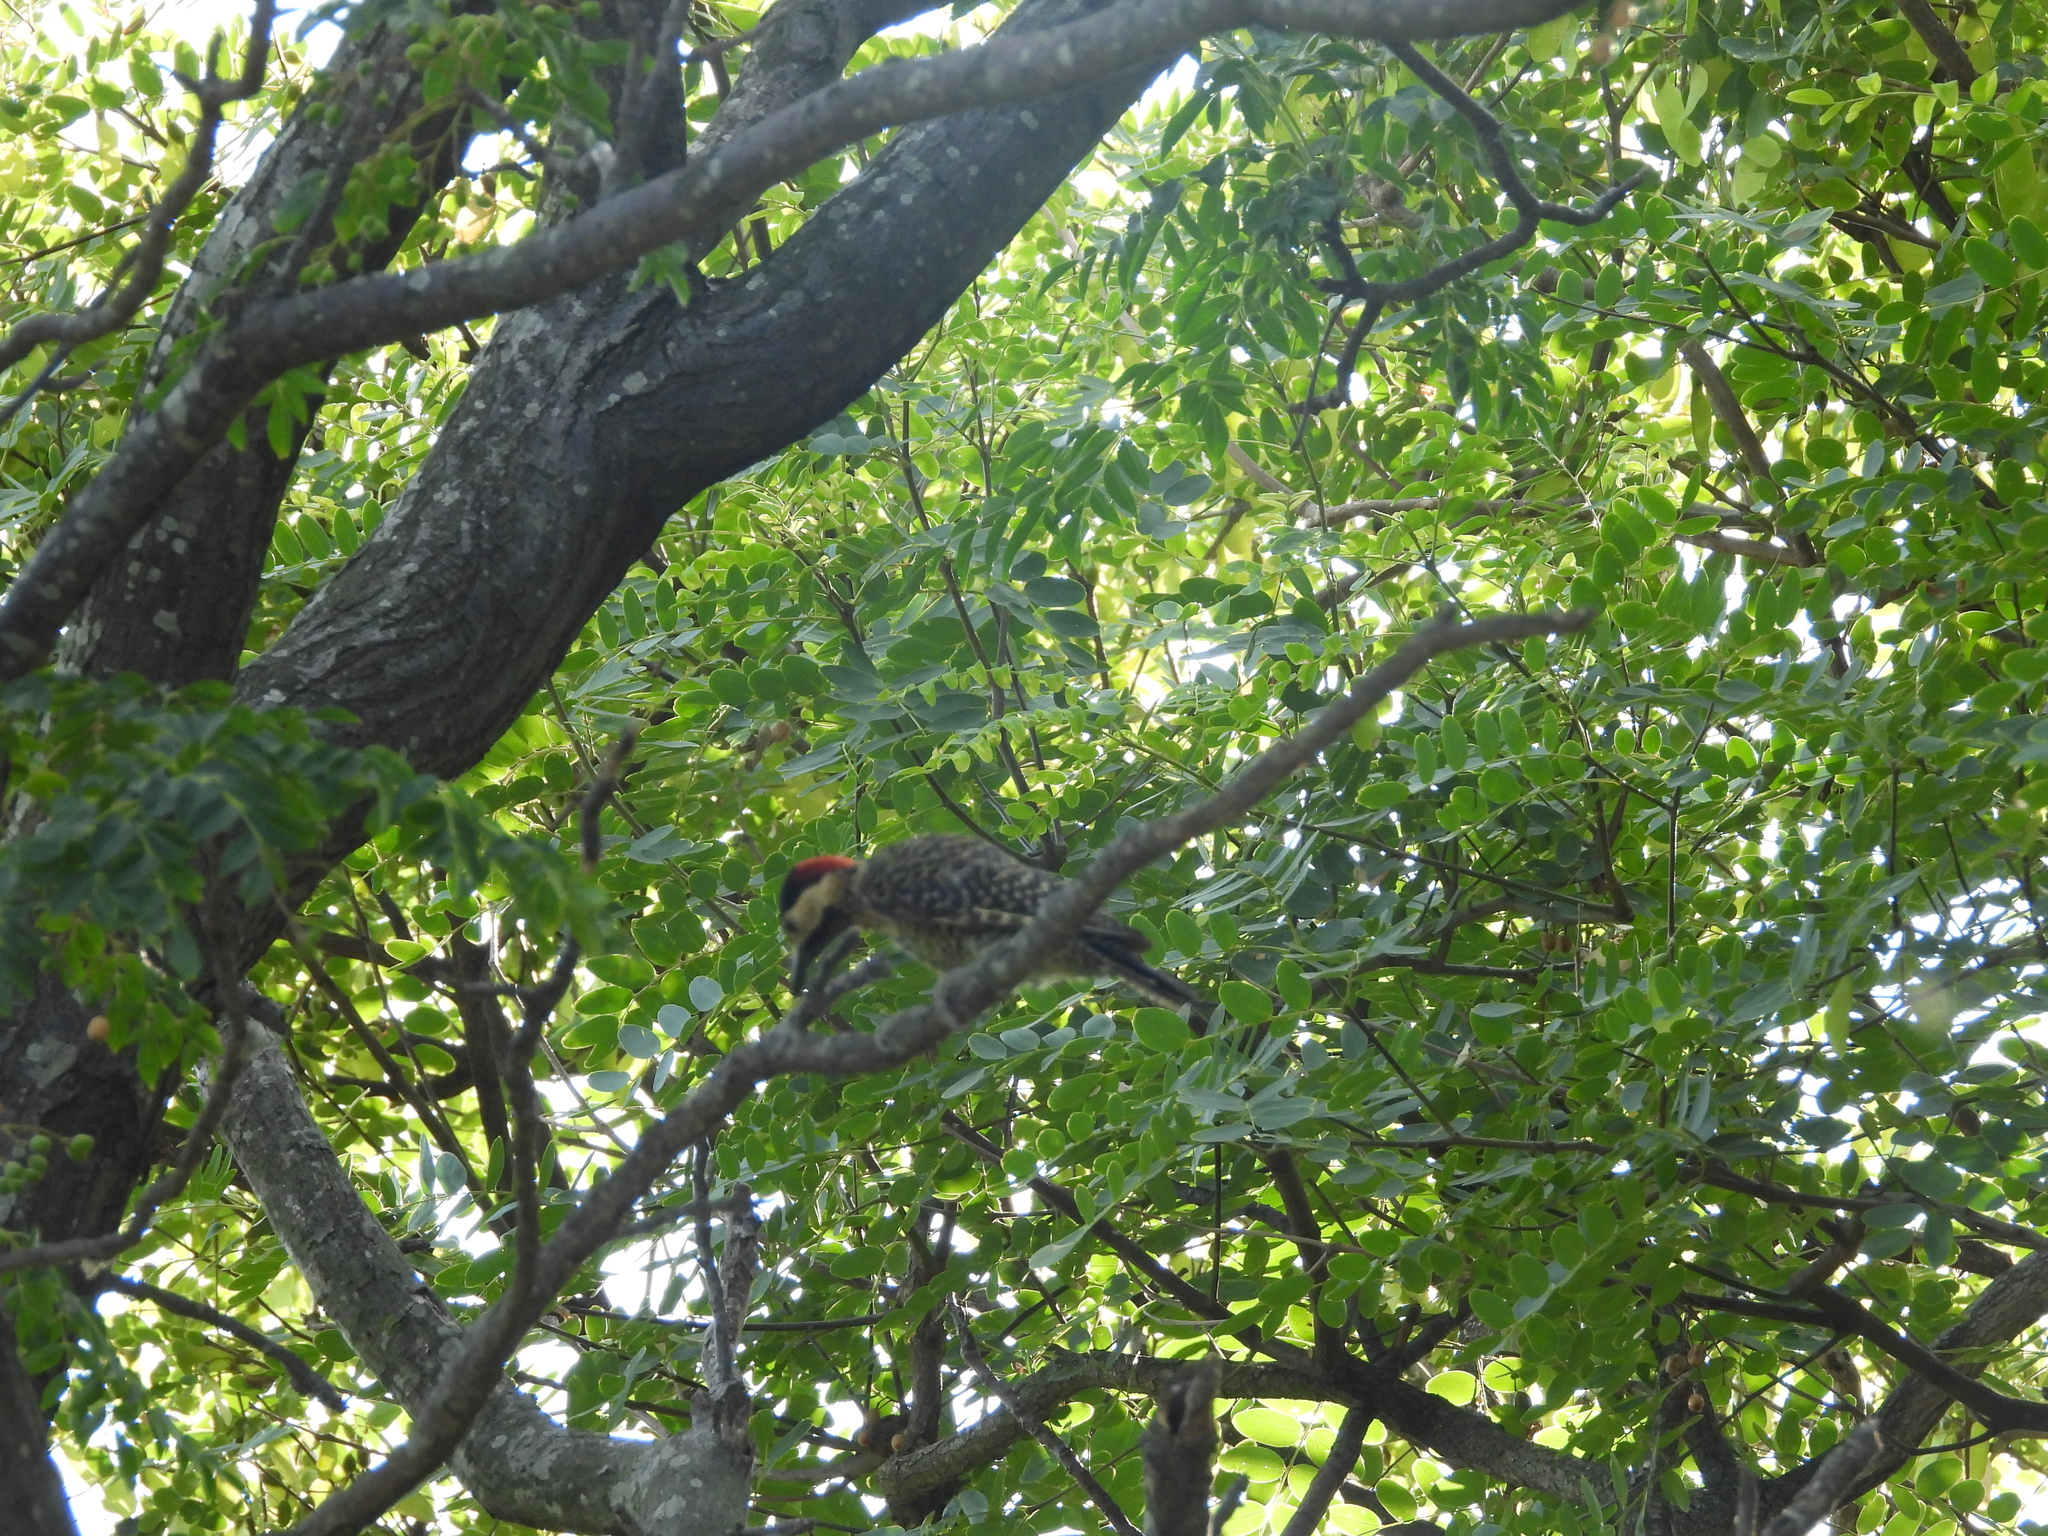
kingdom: Animalia
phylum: Chordata
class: Aves
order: Piciformes
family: Picidae
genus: Colaptes
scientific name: Colaptes melanochloros
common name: Green-barred woodpecker
